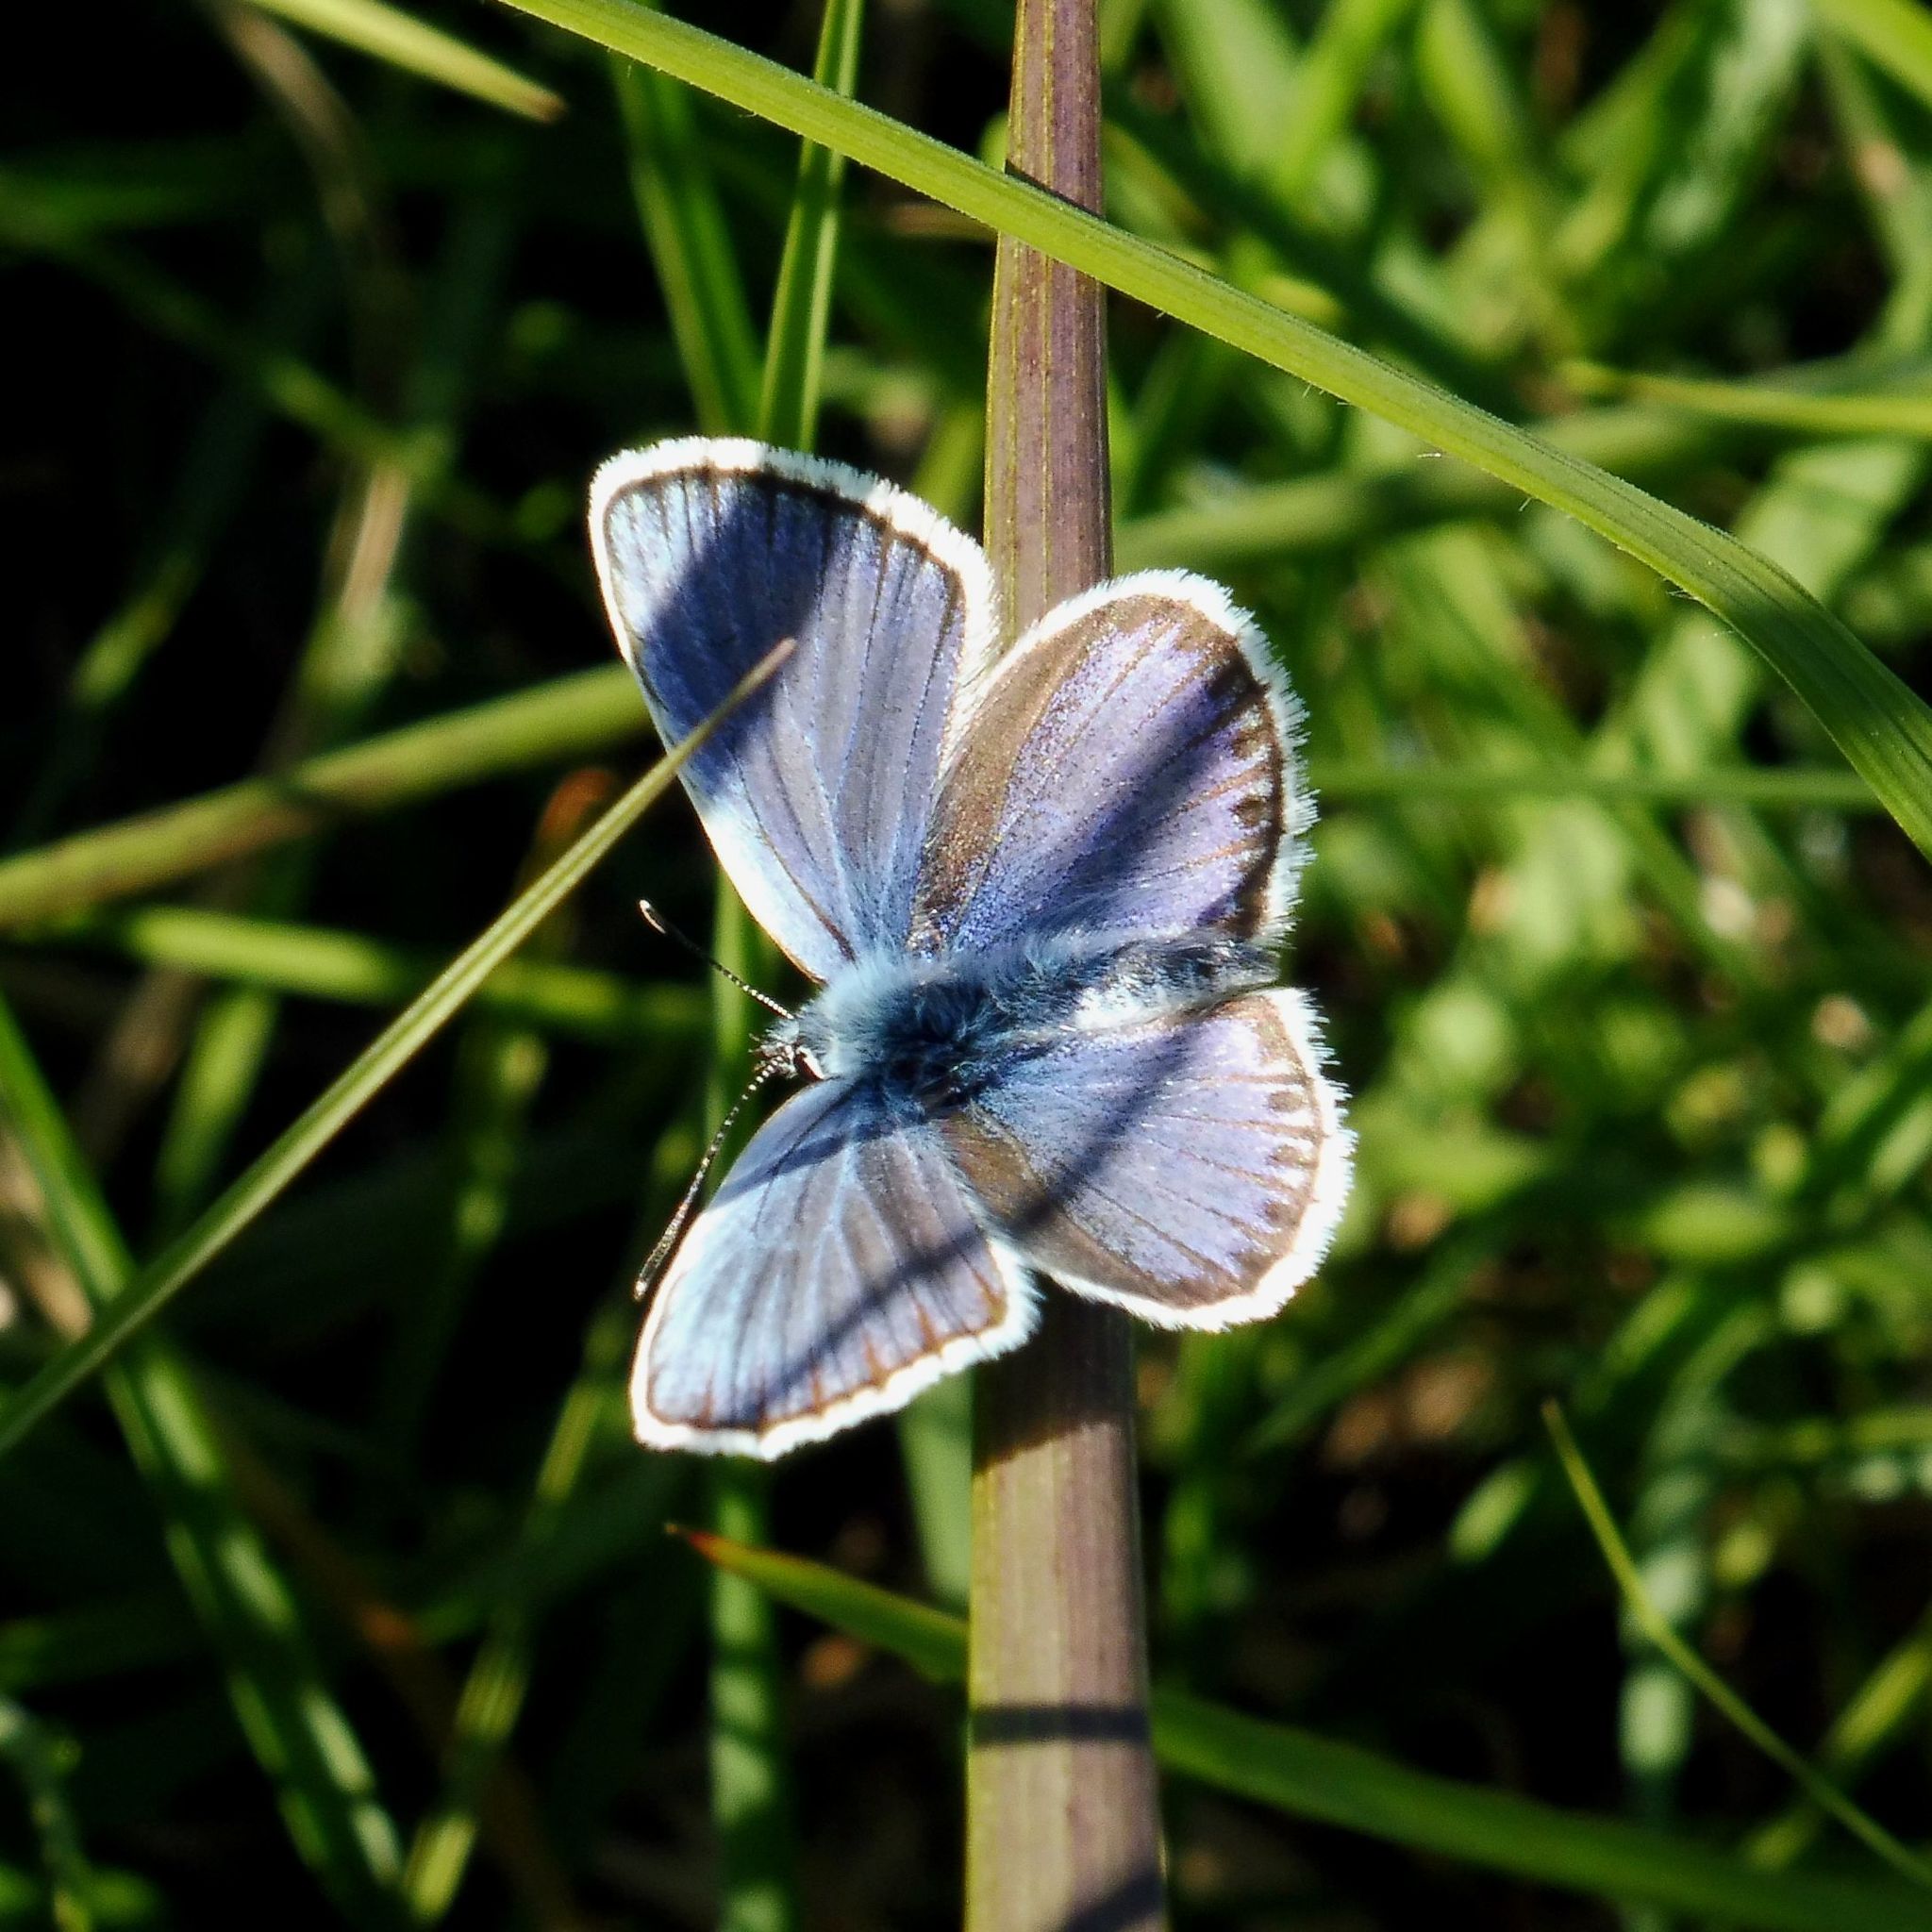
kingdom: Animalia
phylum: Arthropoda
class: Insecta
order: Lepidoptera
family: Lycaenidae
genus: Plebejus
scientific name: Plebejus argus
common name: Silver-studded blue
